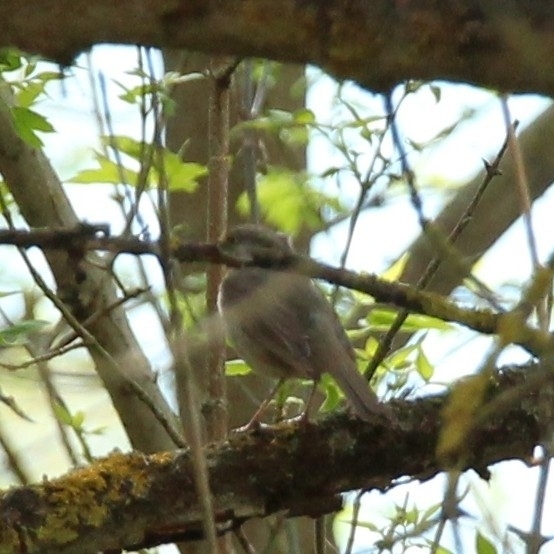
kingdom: Animalia
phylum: Chordata
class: Aves
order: Passeriformes
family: Muscicapidae
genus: Erithacus
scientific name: Erithacus rubecula
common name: European robin
